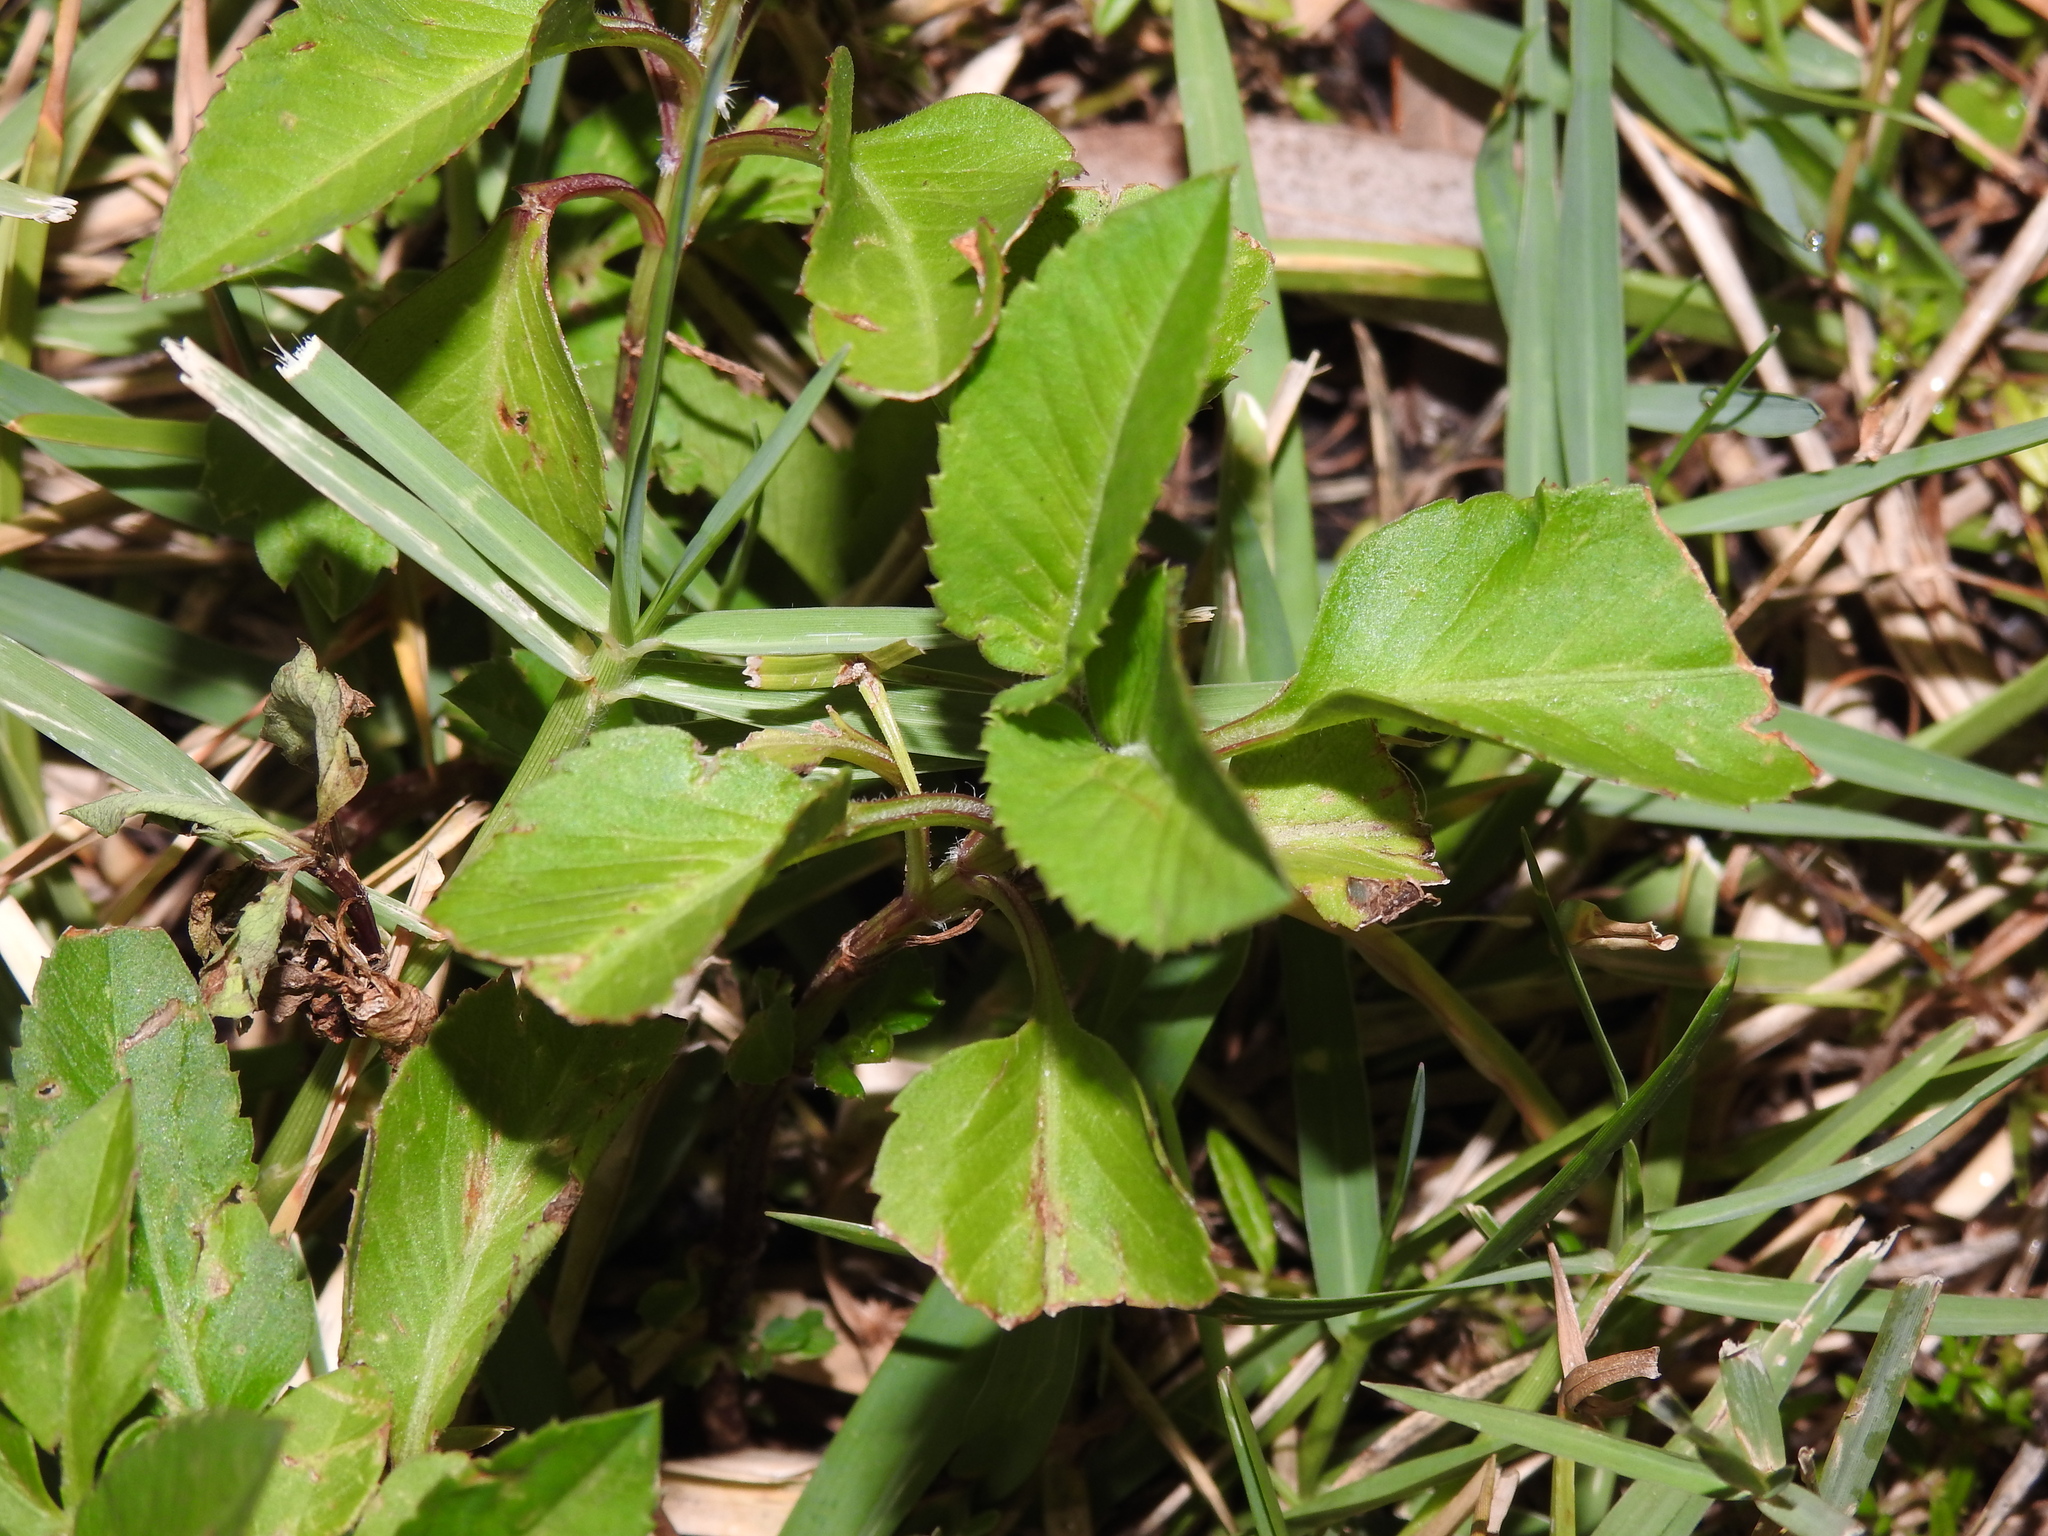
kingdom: Plantae
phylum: Tracheophyta
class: Magnoliopsida
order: Asterales
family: Asteraceae
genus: Bidens
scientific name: Bidens alba
